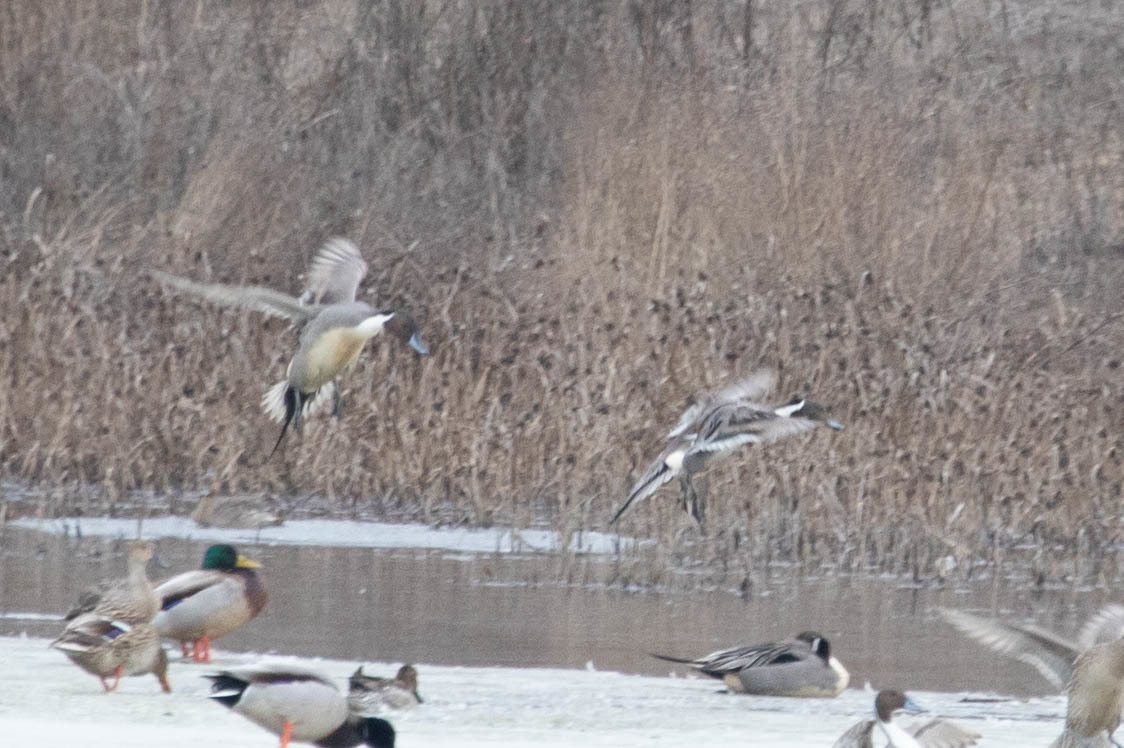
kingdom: Animalia
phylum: Chordata
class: Aves
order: Anseriformes
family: Anatidae
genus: Anas
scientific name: Anas acuta
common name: Northern pintail
